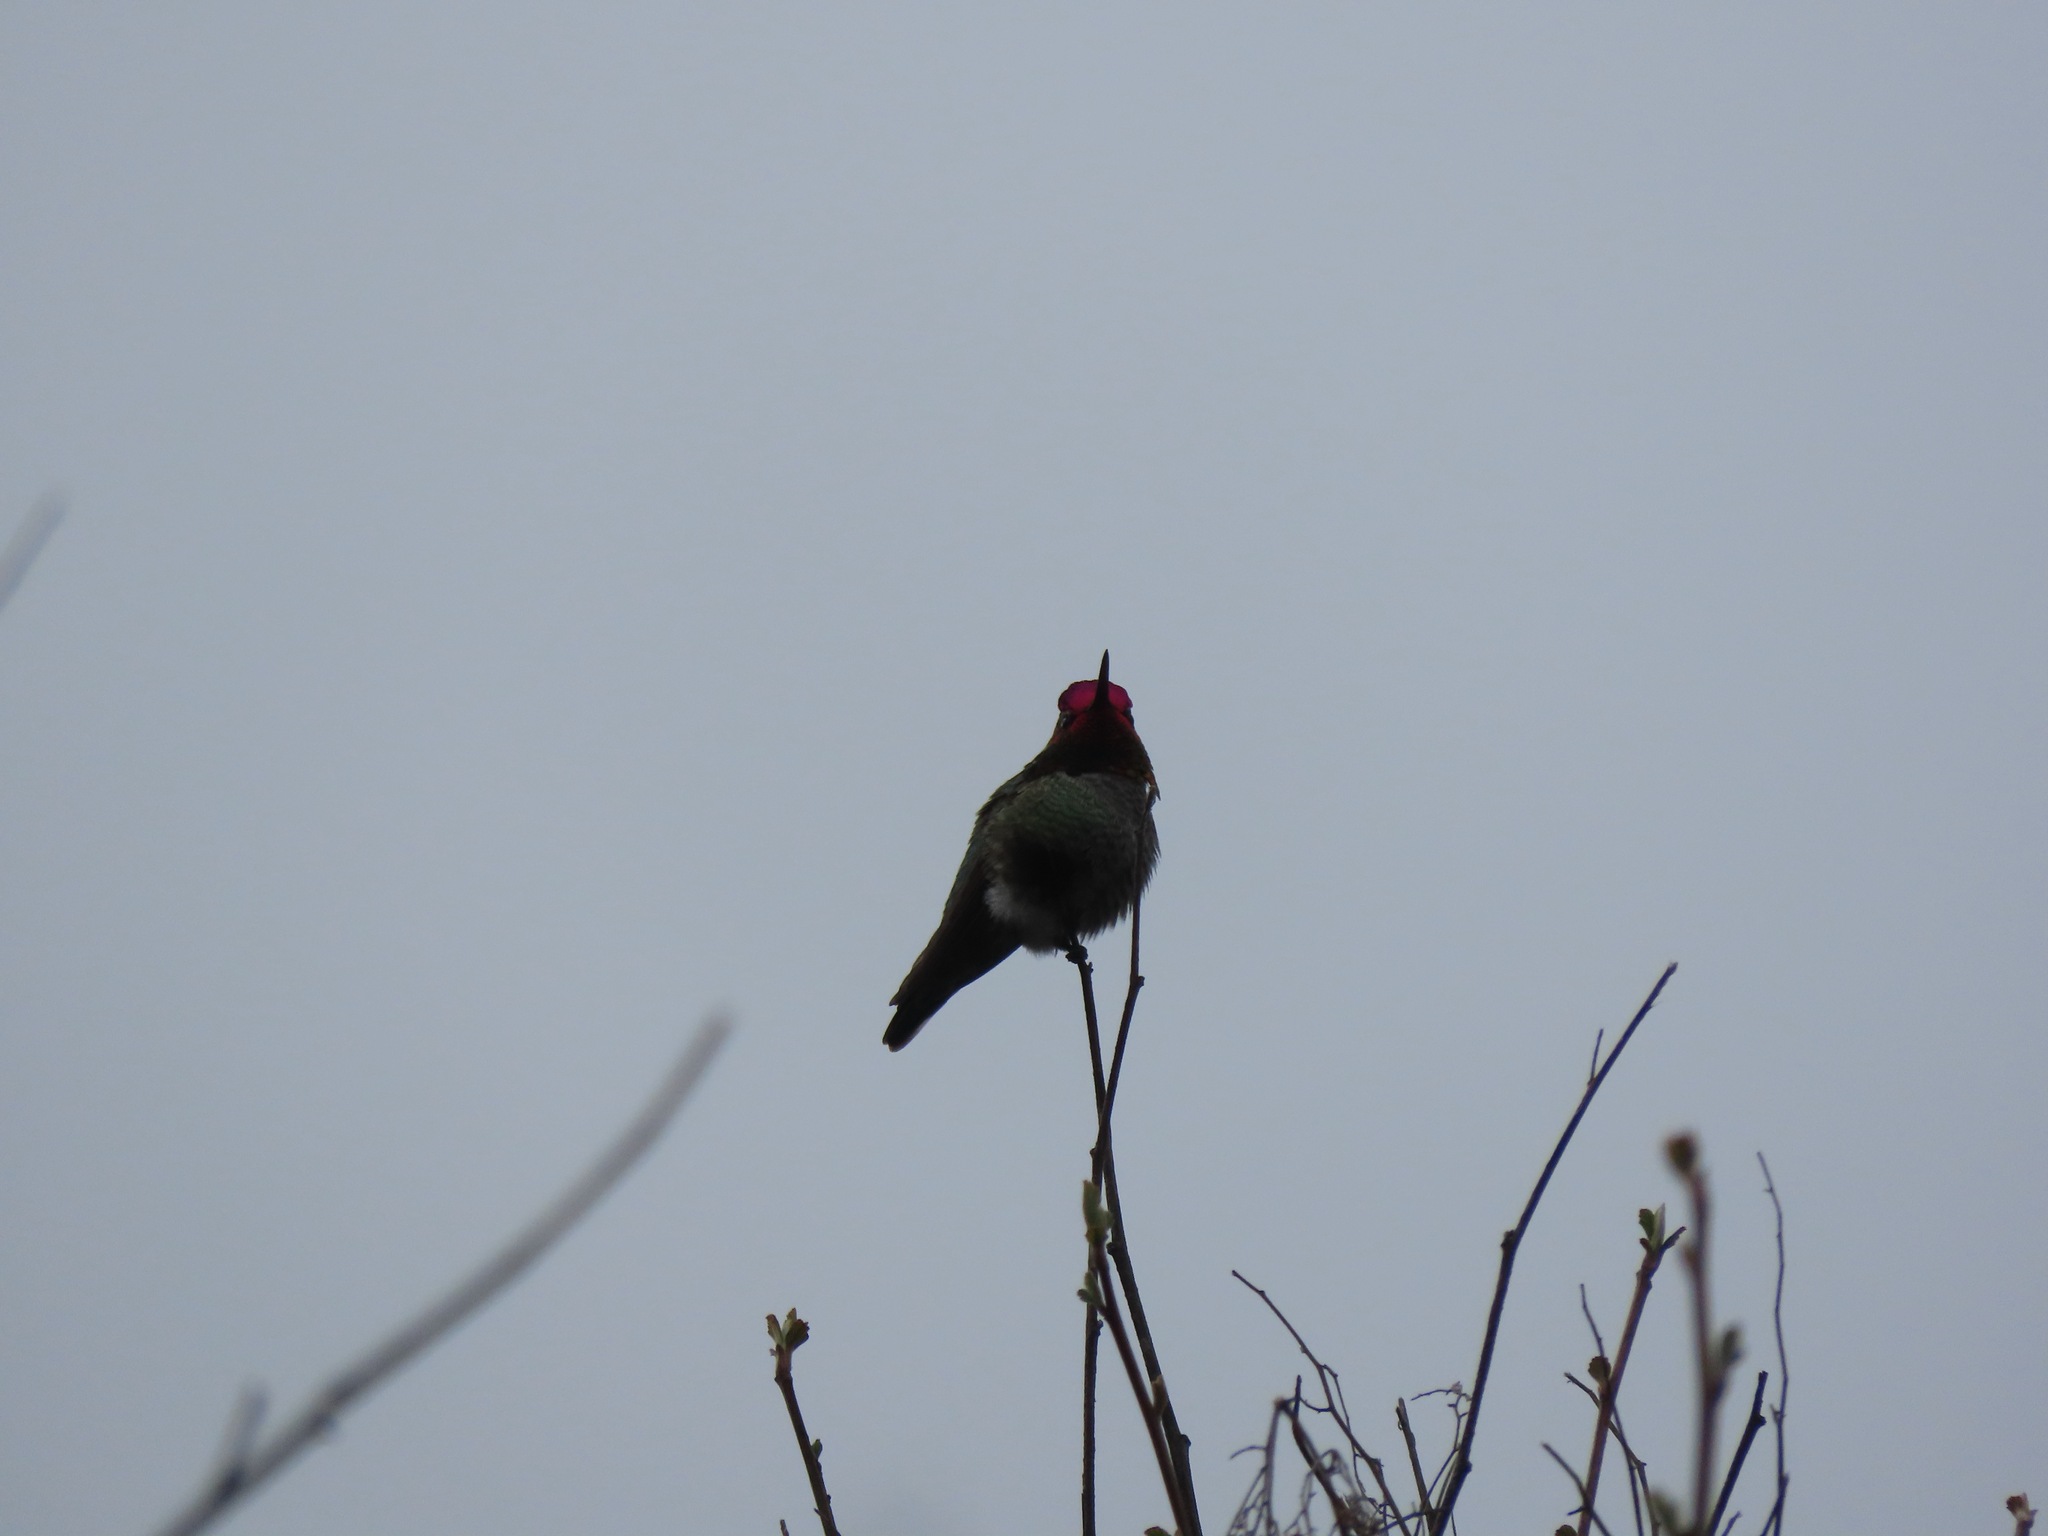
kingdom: Animalia
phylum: Chordata
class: Aves
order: Apodiformes
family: Trochilidae
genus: Calypte
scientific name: Calypte anna
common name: Anna's hummingbird
